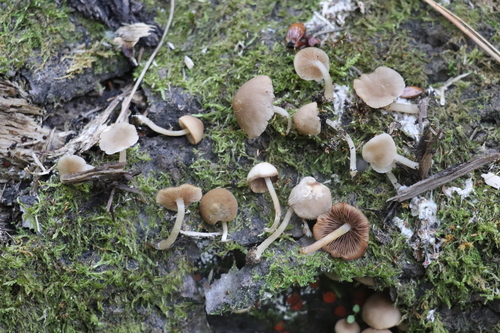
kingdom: Fungi
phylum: Basidiomycota
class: Agaricomycetes
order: Agaricales
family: Psathyrellaceae
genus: Psathyrella
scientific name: Psathyrella pygmaea
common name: Pygmy brittlestem
